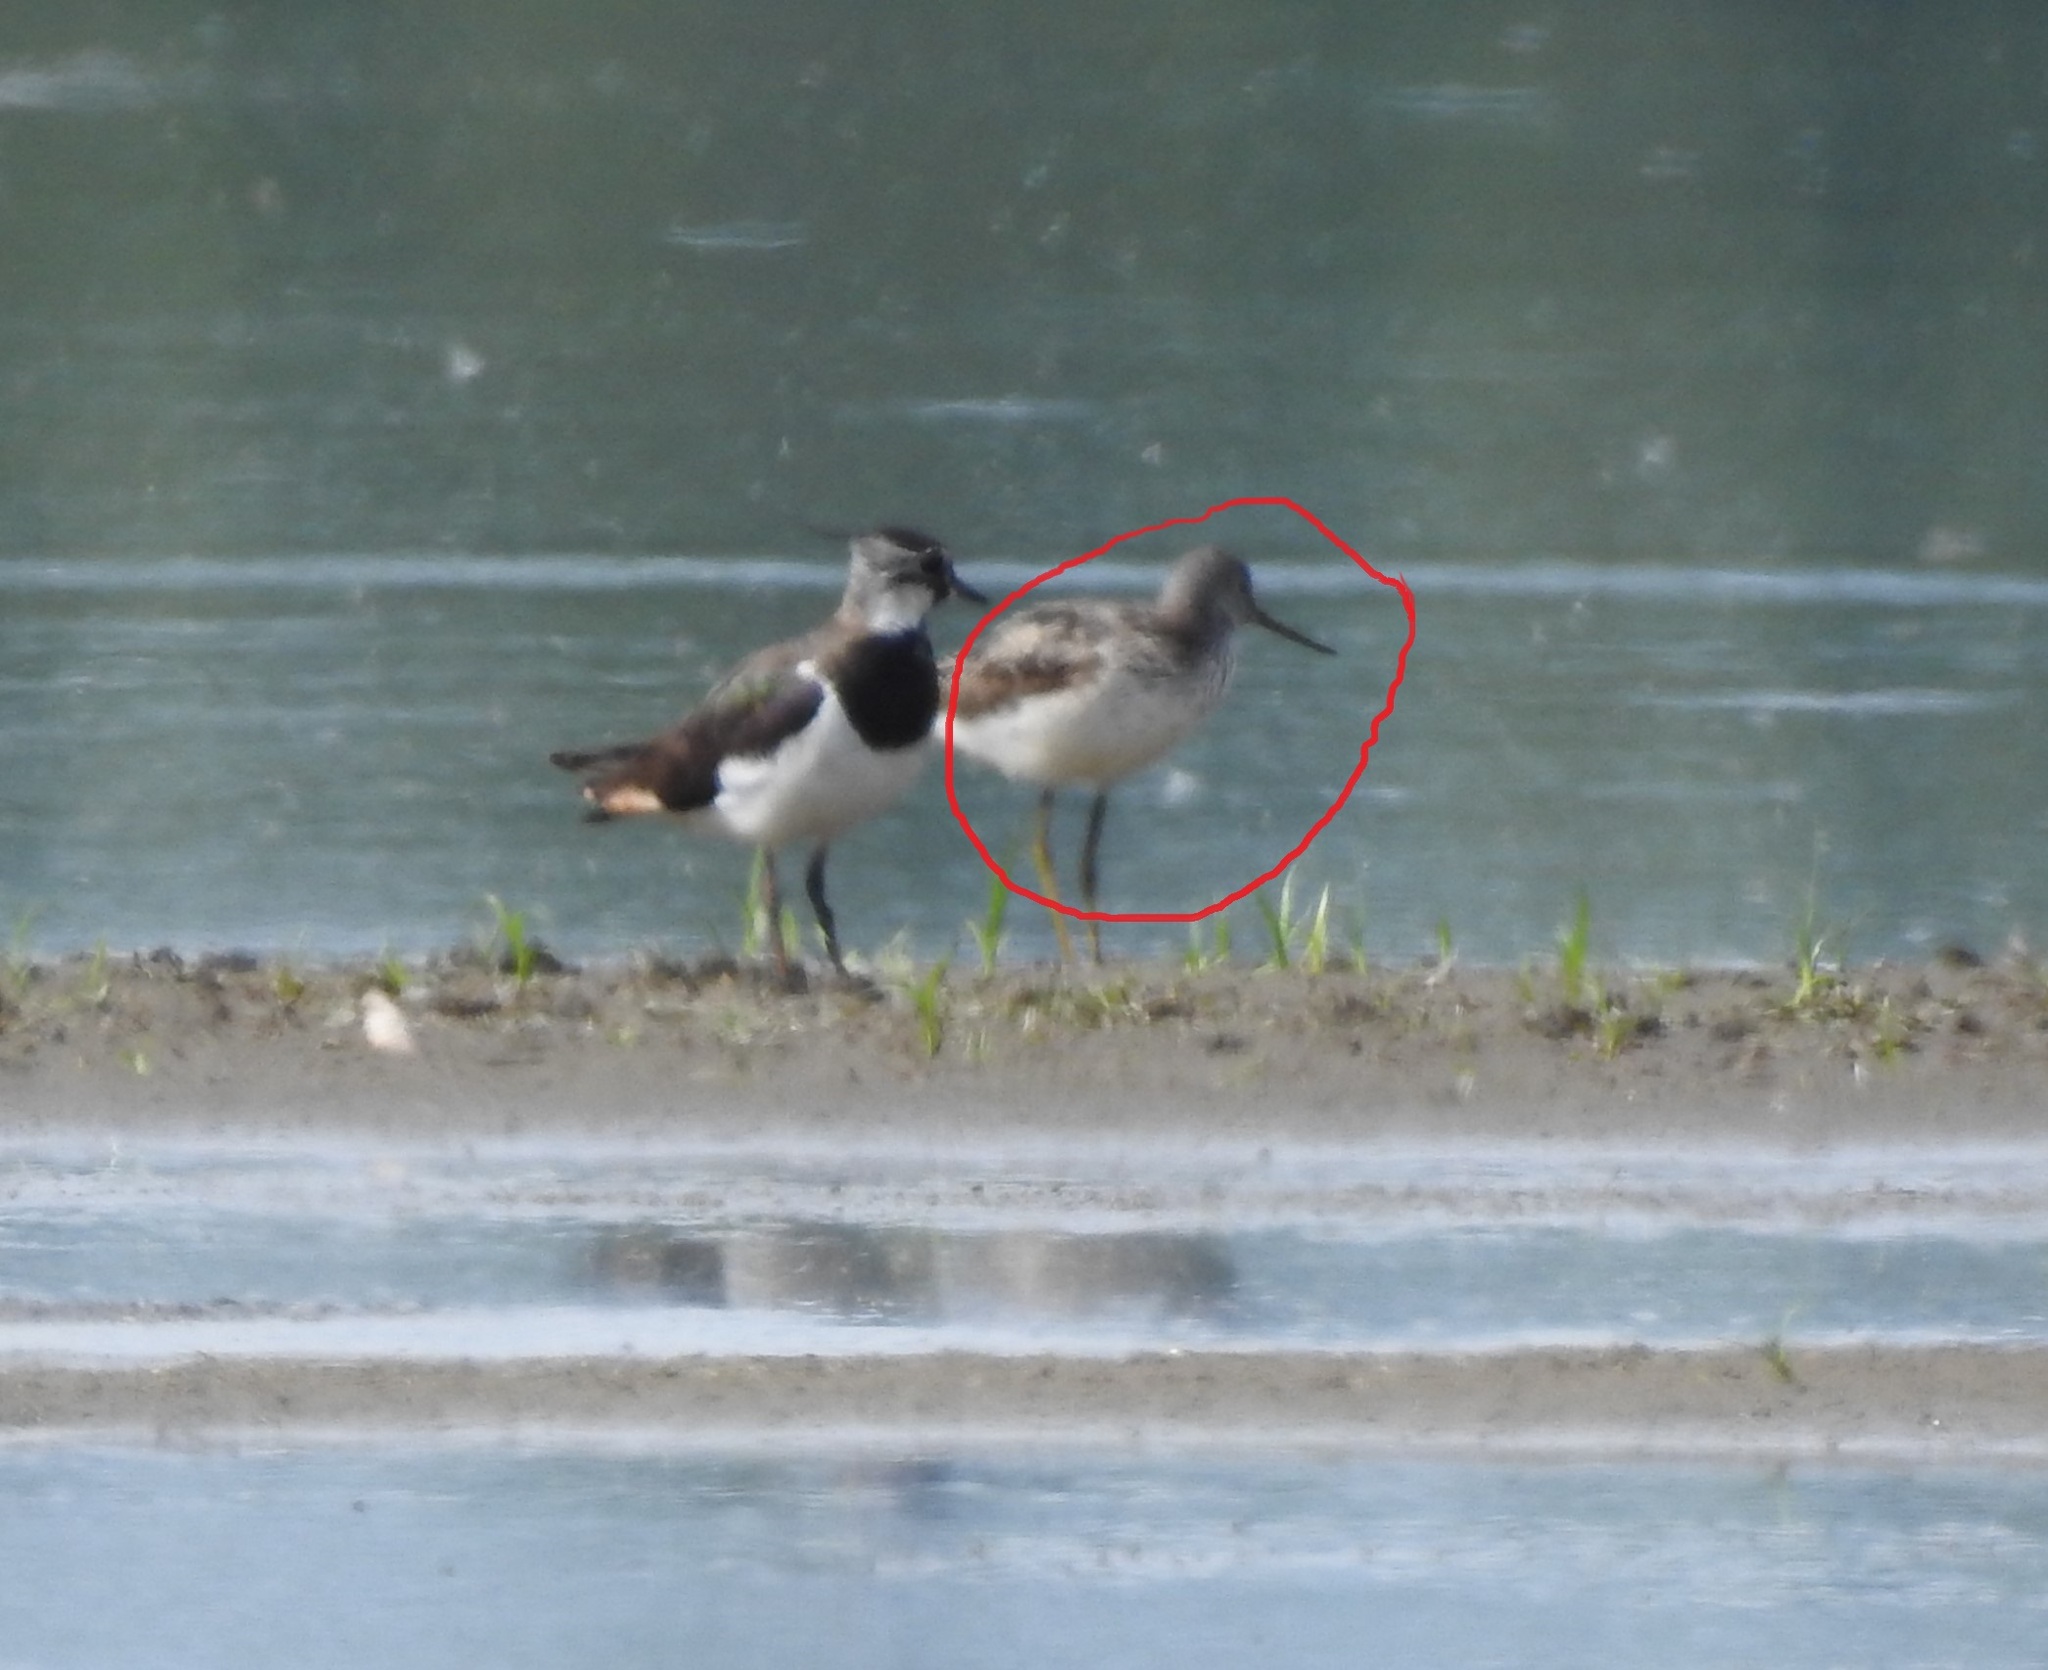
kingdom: Animalia
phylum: Chordata
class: Aves
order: Charadriiformes
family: Scolopacidae
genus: Tringa
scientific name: Tringa nebularia
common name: Common greenshank
